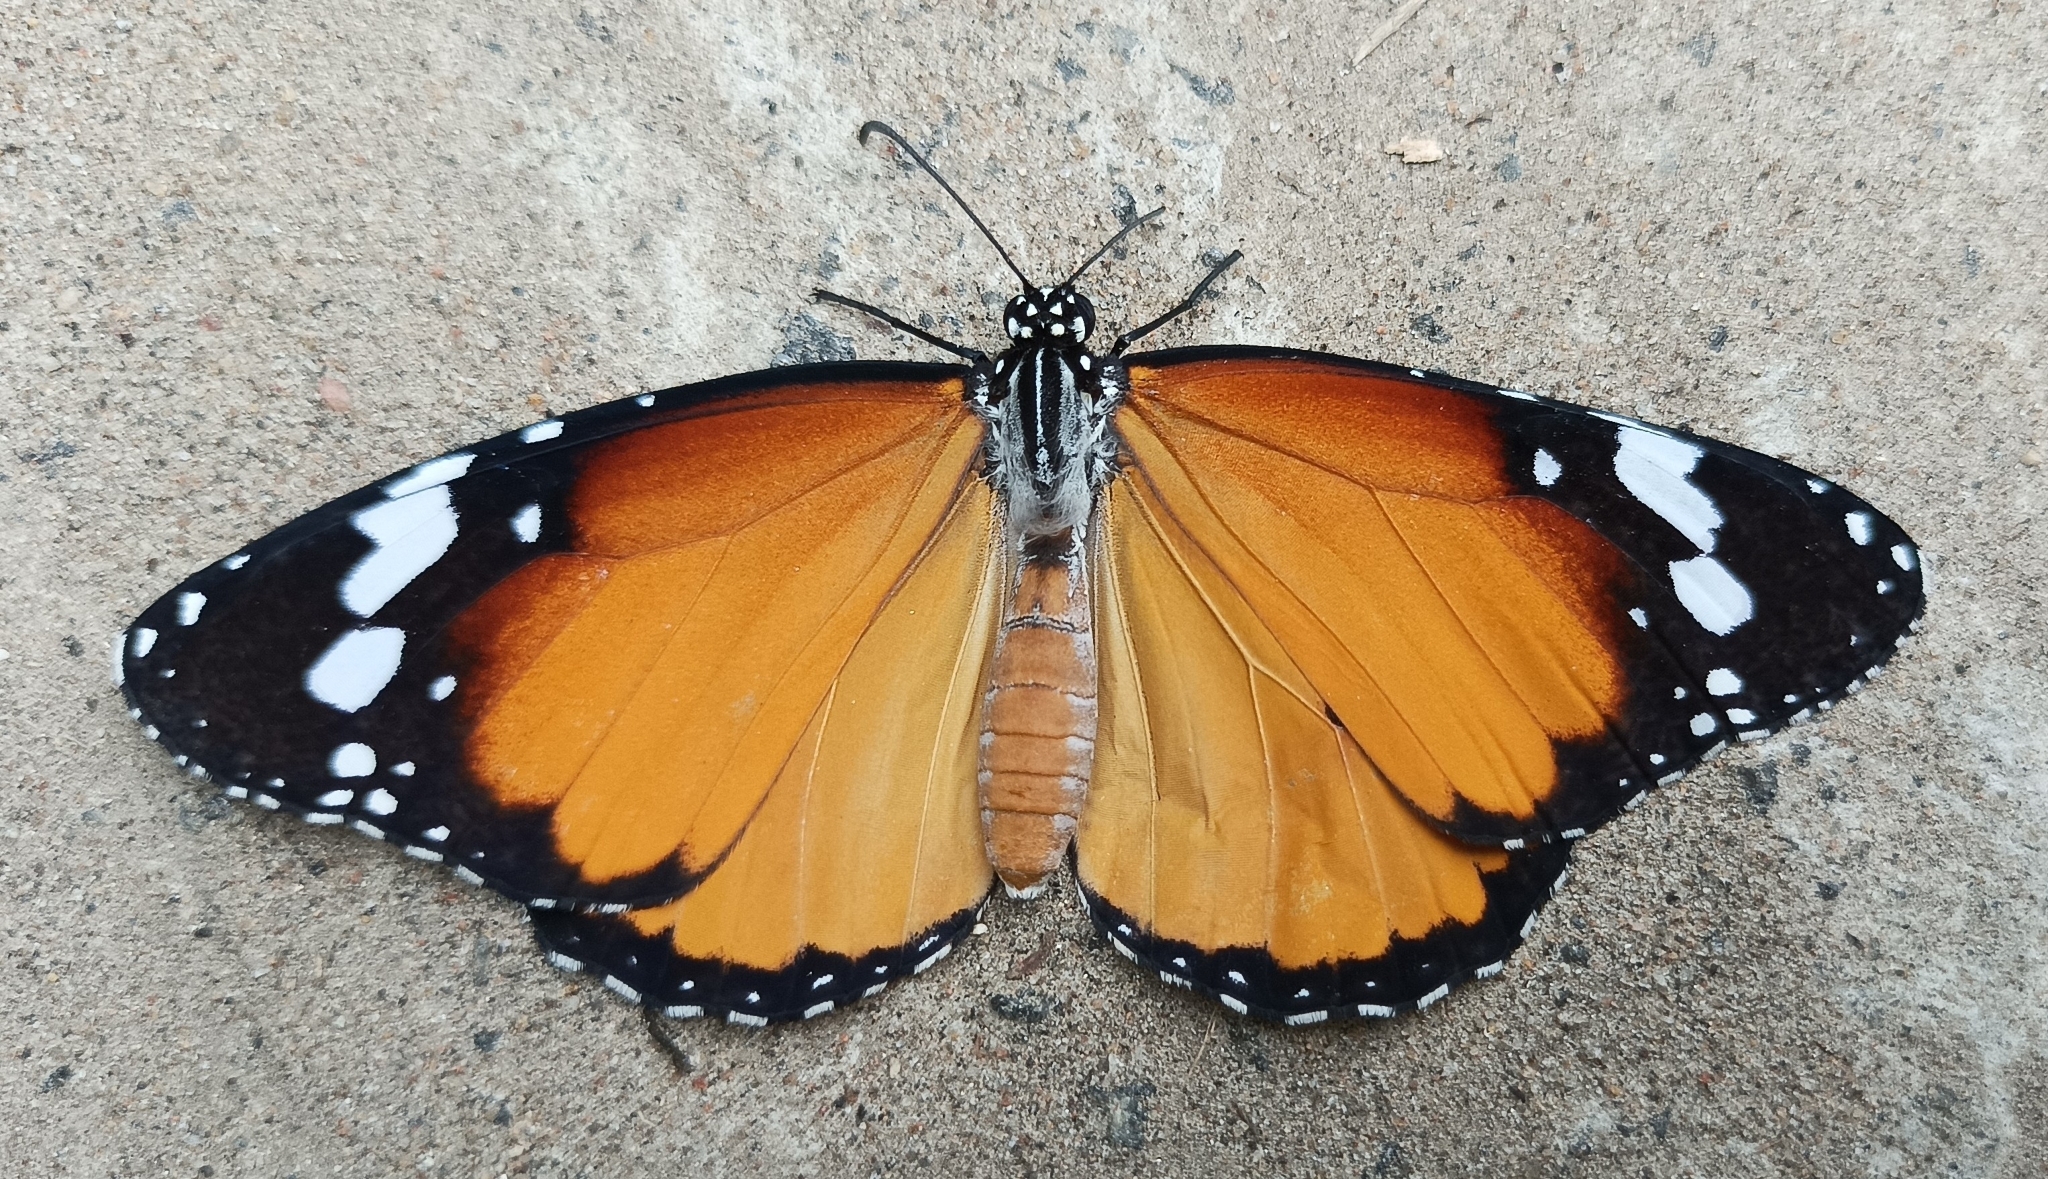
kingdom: Animalia
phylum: Arthropoda
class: Insecta
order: Lepidoptera
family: Nymphalidae
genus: Danaus
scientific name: Danaus chrysippus
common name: Plain tiger
